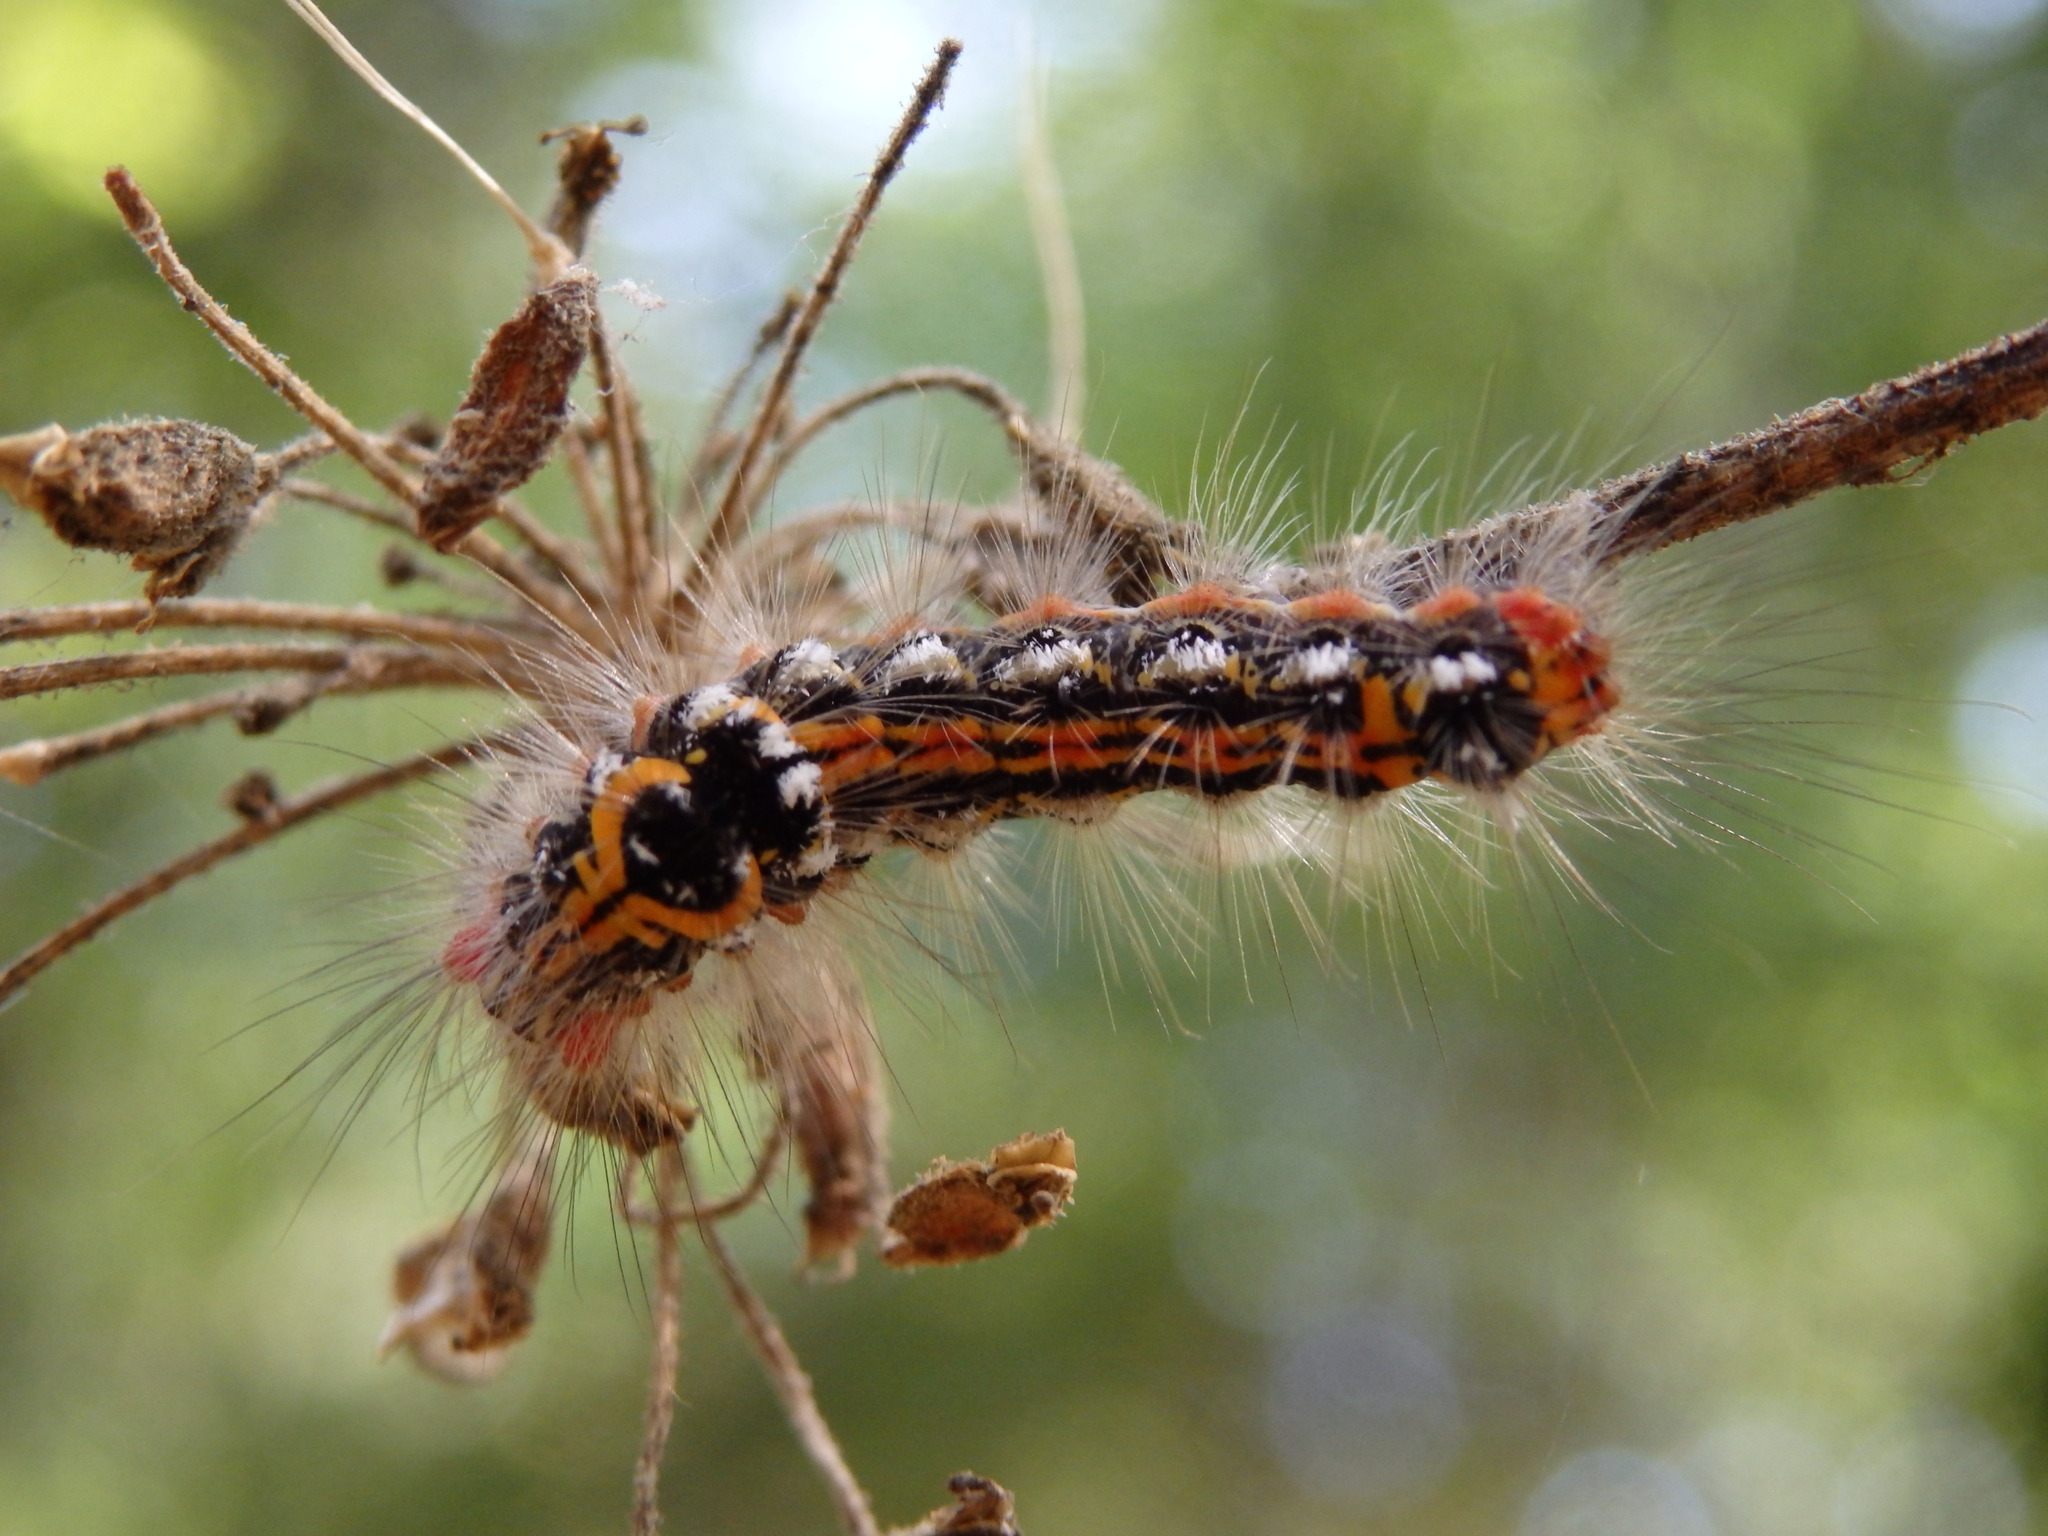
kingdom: Animalia
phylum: Arthropoda
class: Insecta
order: Lepidoptera
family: Erebidae
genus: Sphrageidus
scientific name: Sphrageidus similis
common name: Yellow-tail
